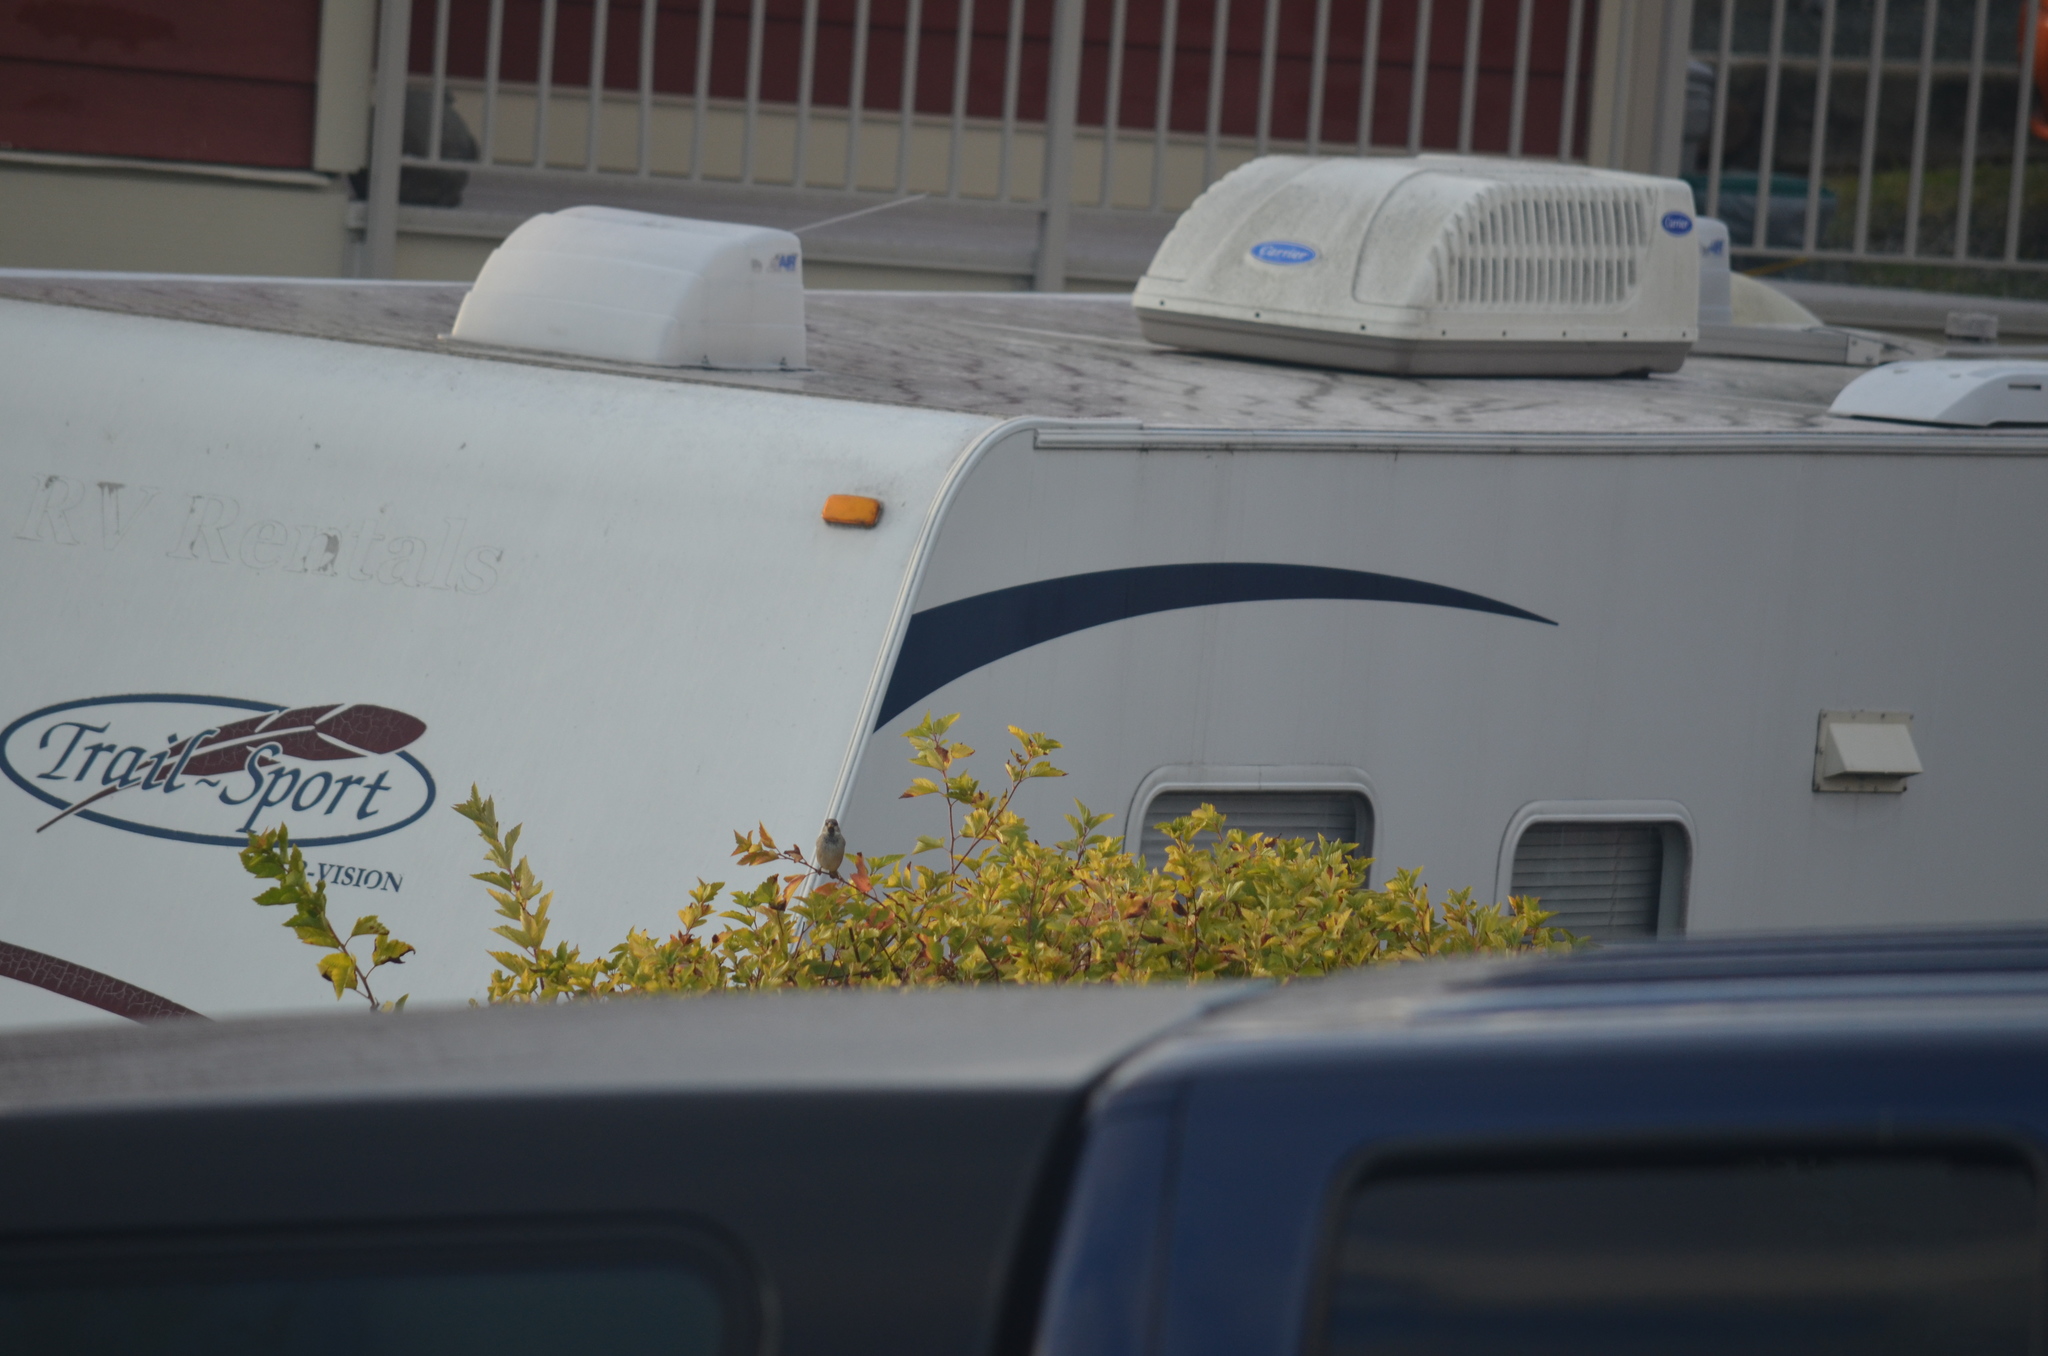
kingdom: Animalia
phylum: Chordata
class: Aves
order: Passeriformes
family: Passeridae
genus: Passer
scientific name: Passer domesticus
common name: House sparrow
